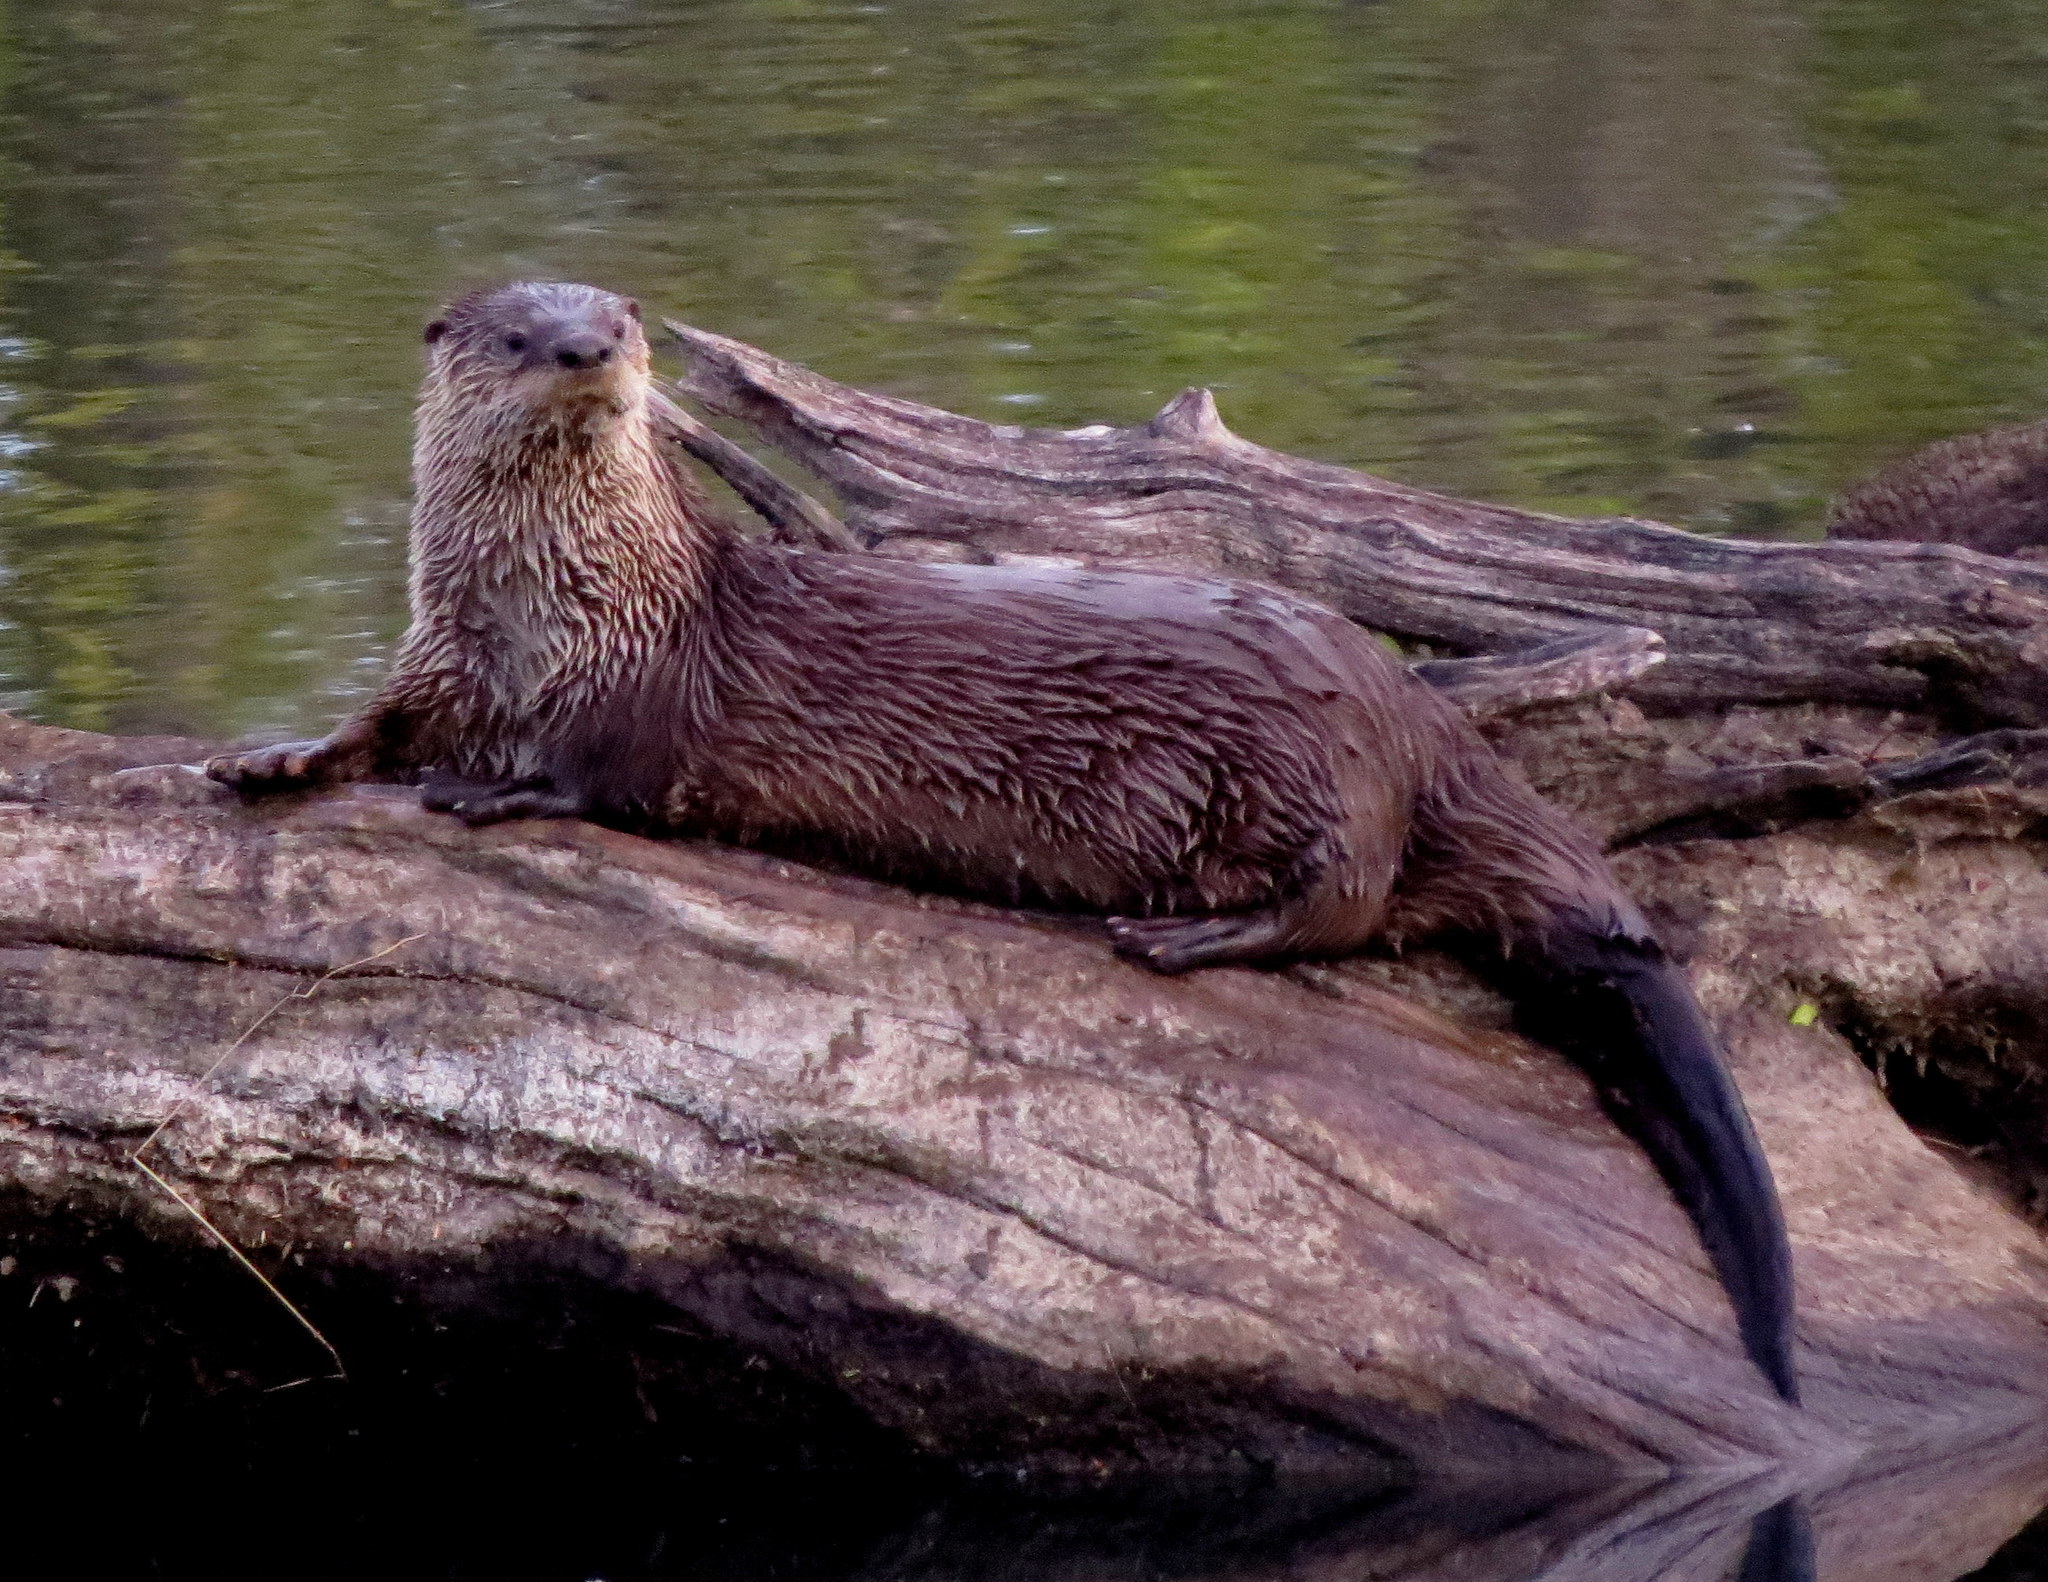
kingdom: Animalia
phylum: Chordata
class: Mammalia
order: Carnivora
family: Mustelidae
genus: Lontra
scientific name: Lontra canadensis
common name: North american river otter
